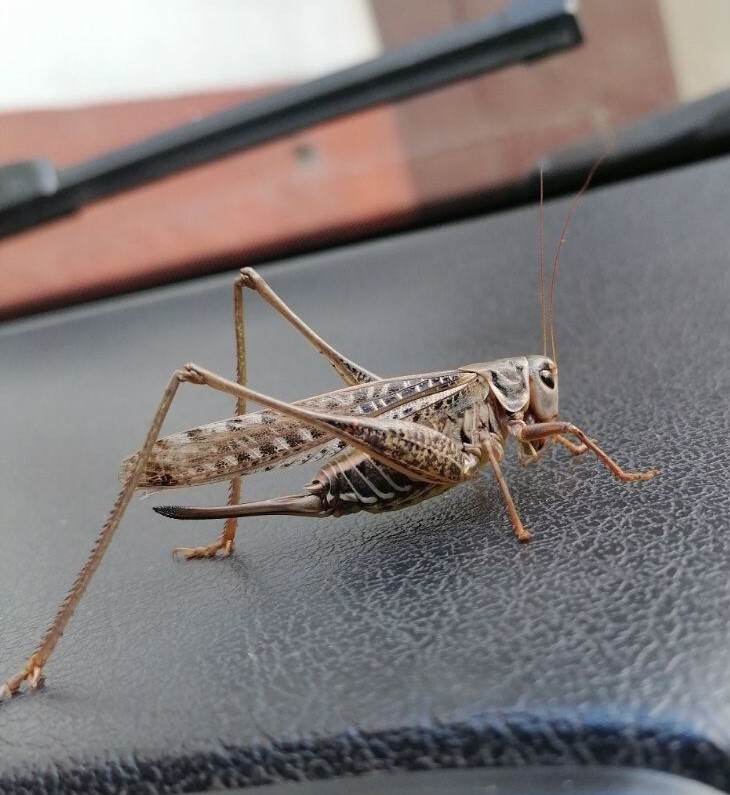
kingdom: Animalia
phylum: Arthropoda
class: Insecta
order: Orthoptera
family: Tettigoniidae
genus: Decticus
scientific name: Decticus albifrons
